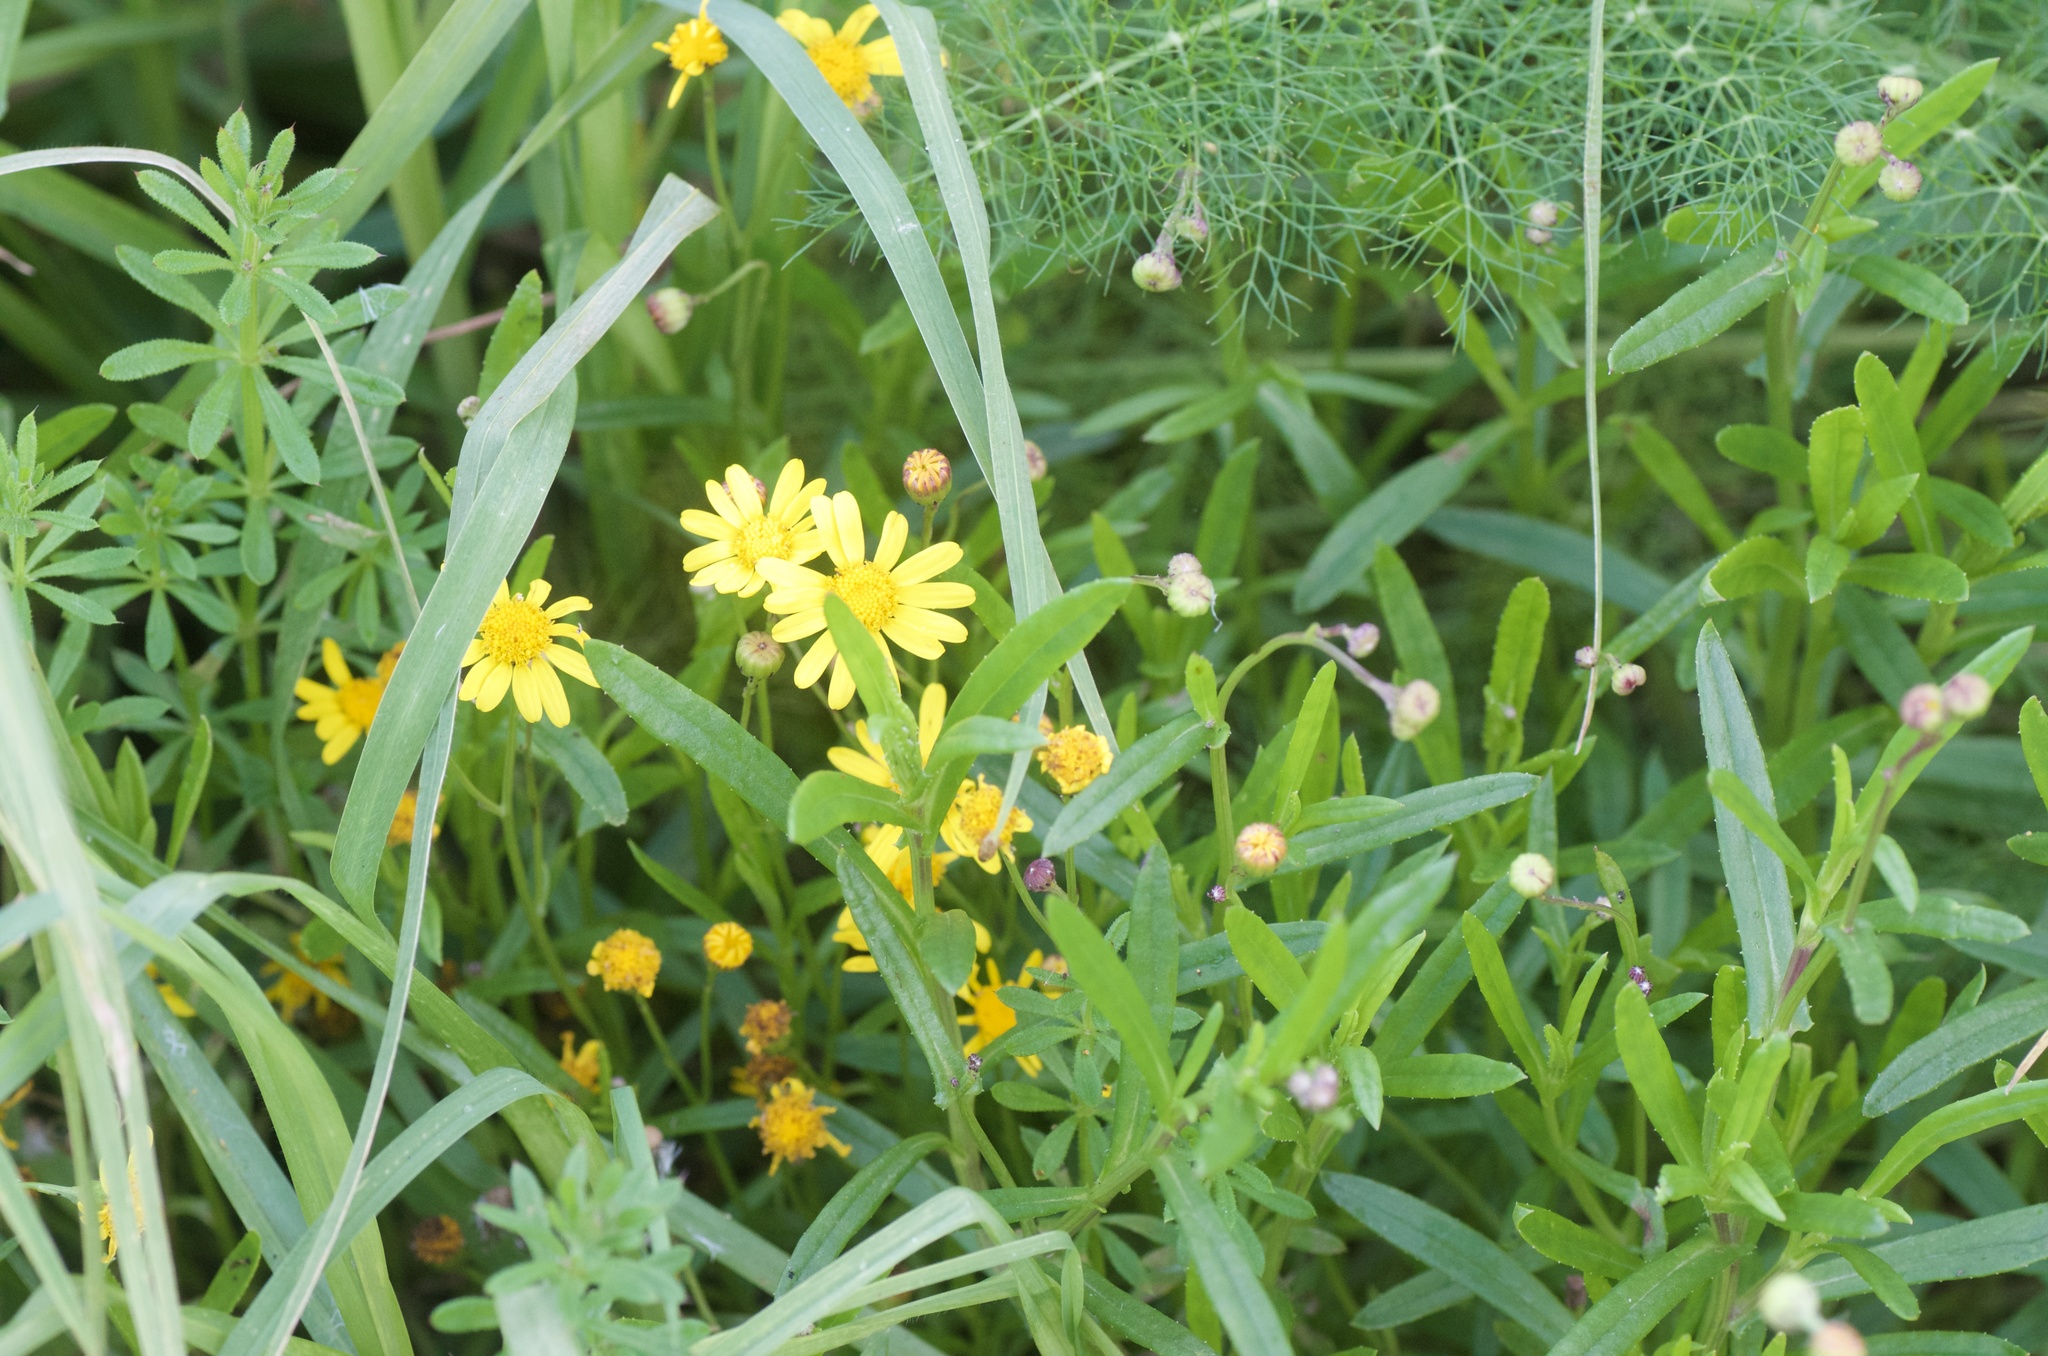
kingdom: Plantae
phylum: Tracheophyta
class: Magnoliopsida
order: Asterales
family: Asteraceae
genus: Senecio
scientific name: Senecio skirrhodon
